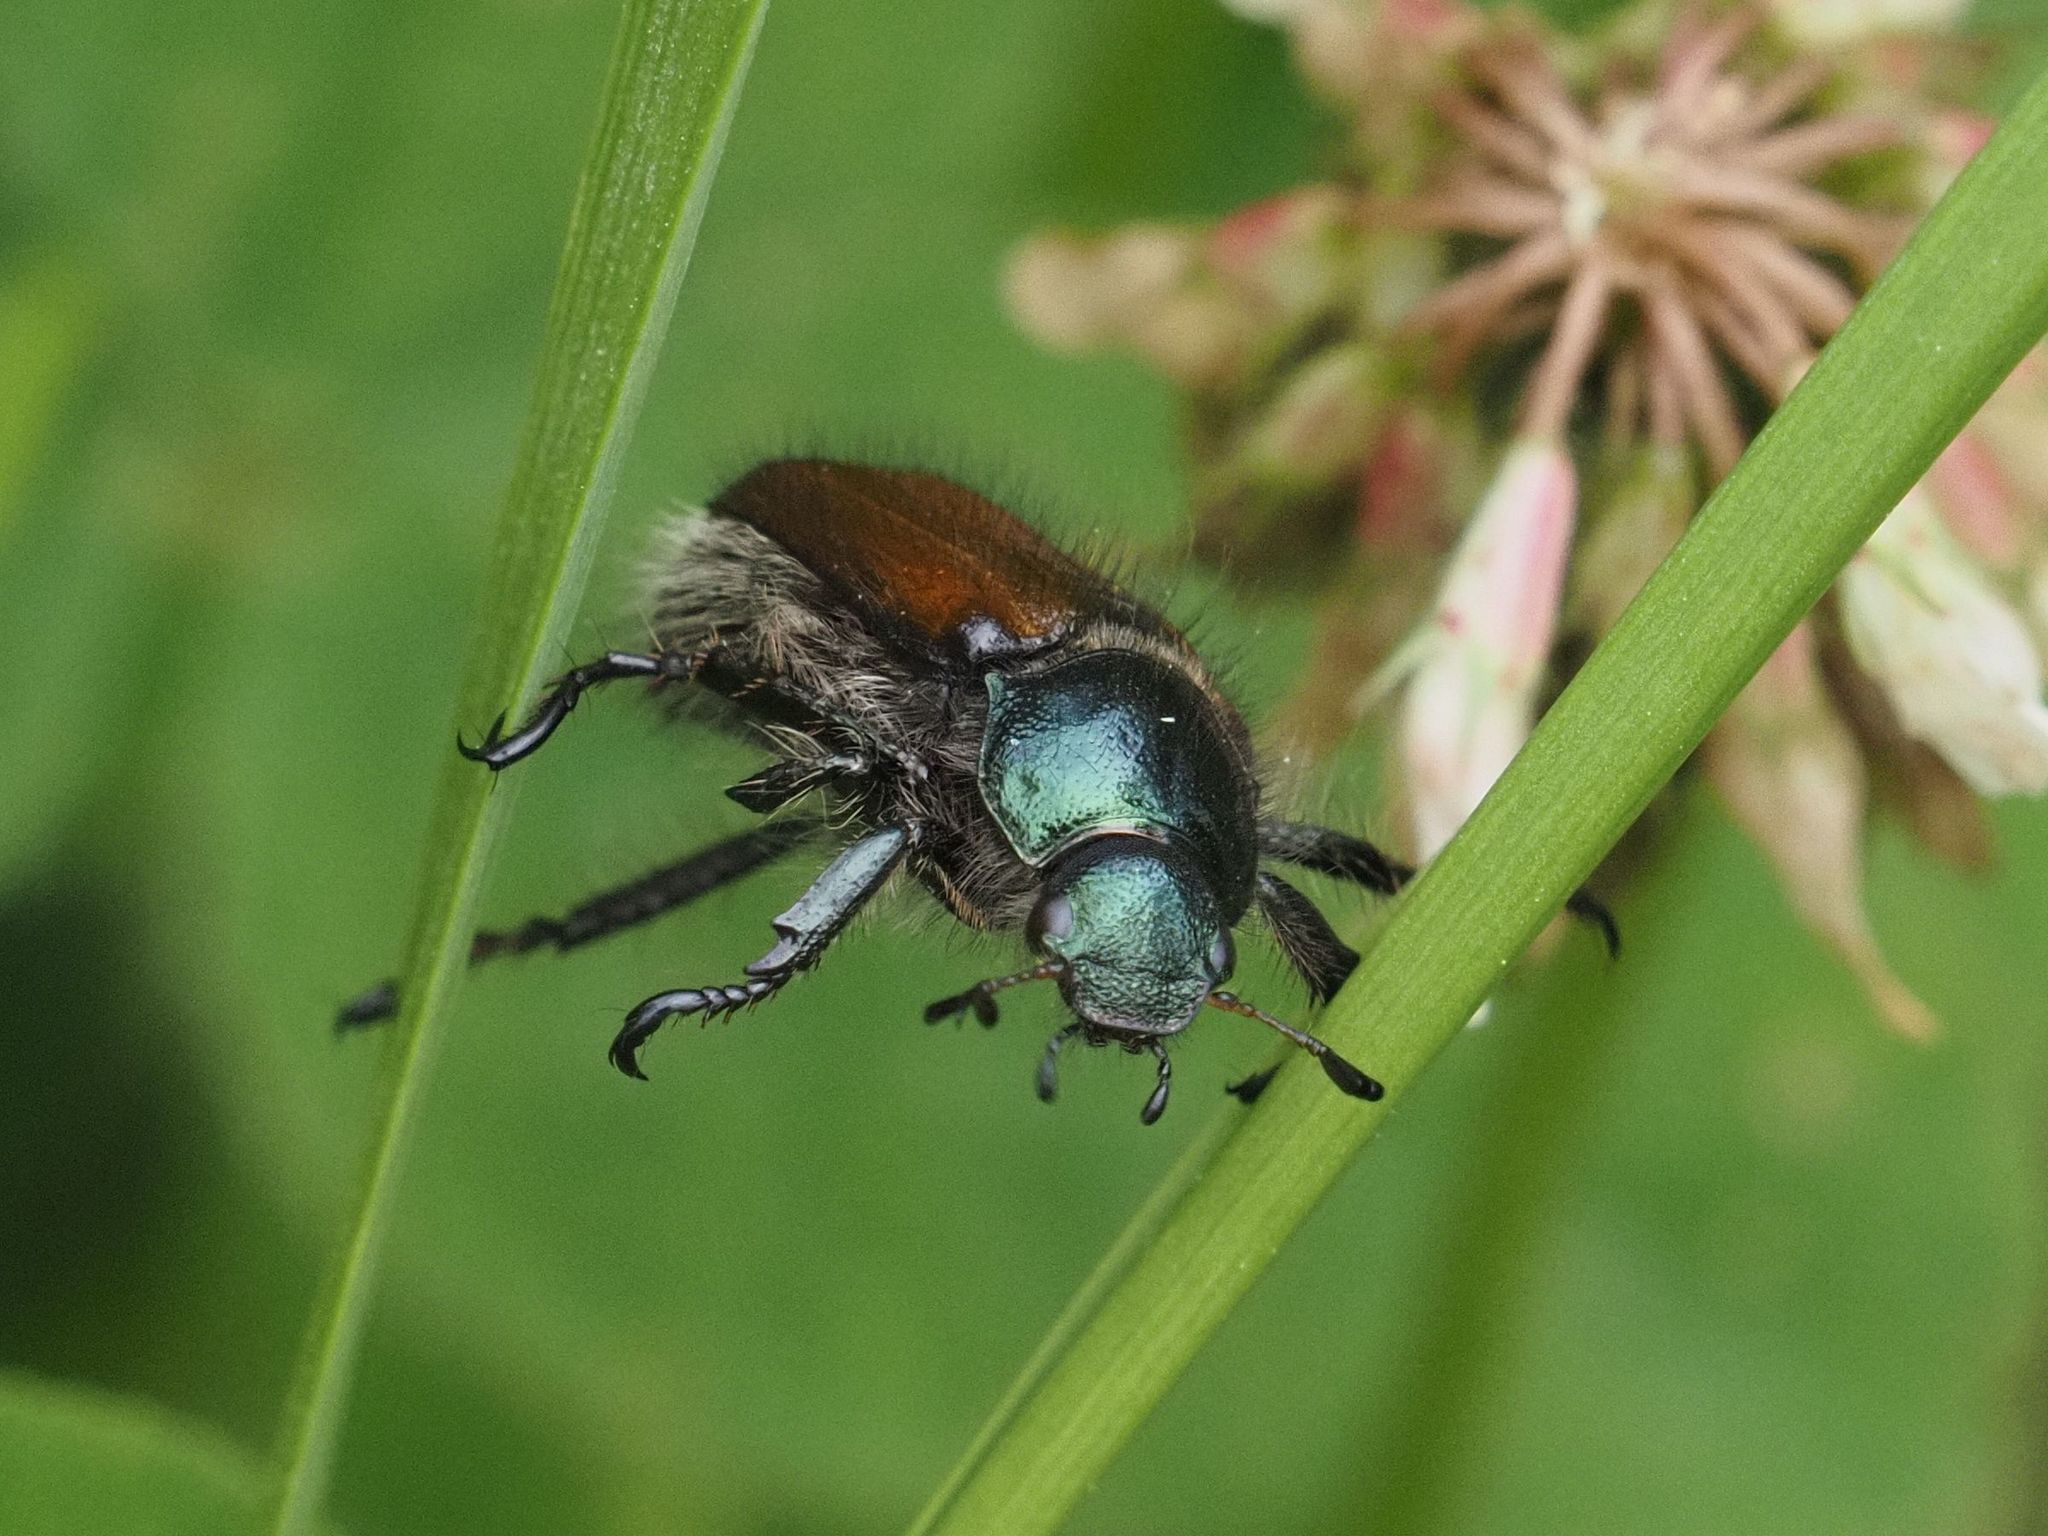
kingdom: Animalia
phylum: Arthropoda
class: Insecta
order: Coleoptera
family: Scarabaeidae
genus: Phyllopertha
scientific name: Phyllopertha horticola
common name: Garden chafer
